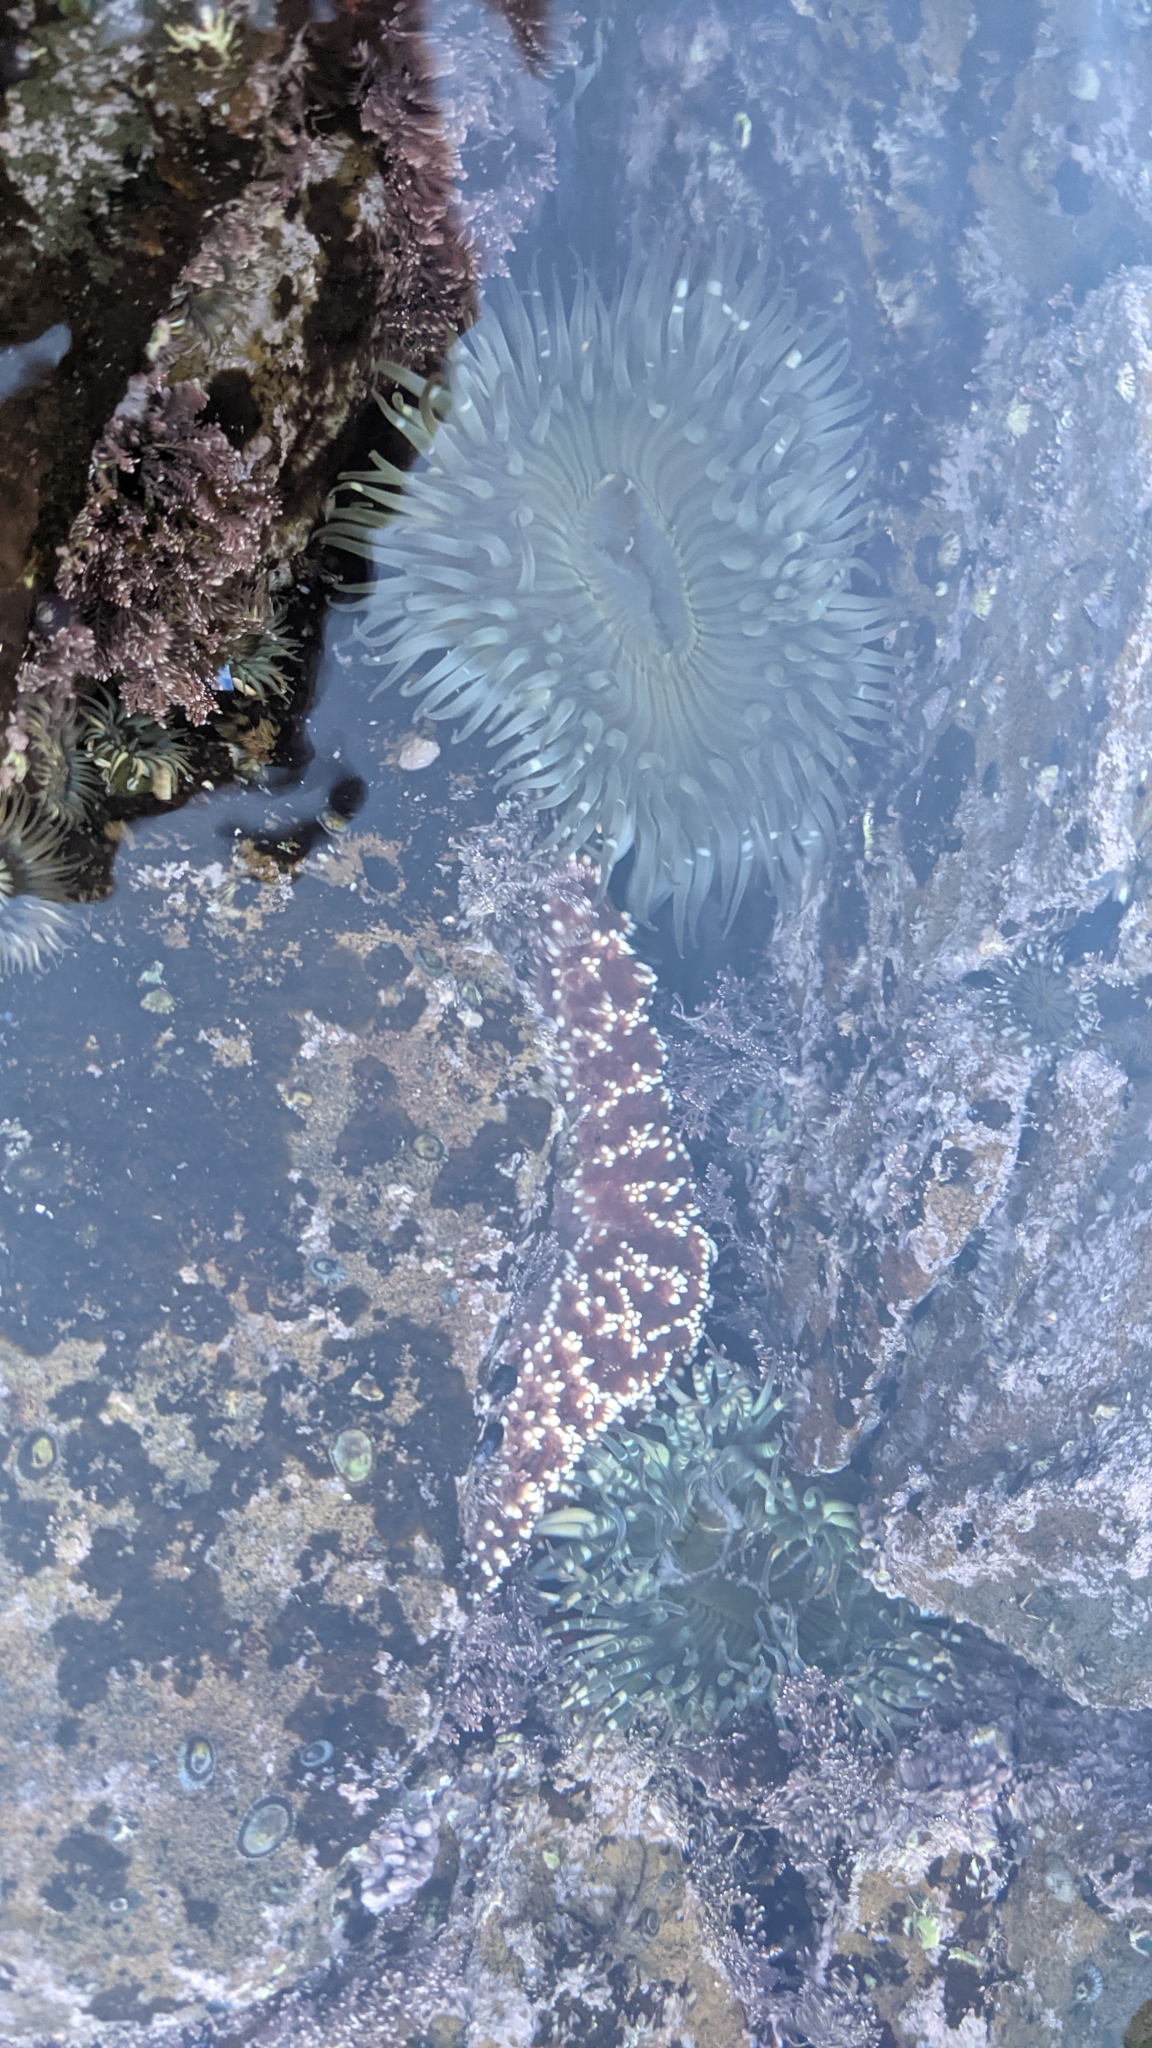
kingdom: Animalia
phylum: Echinodermata
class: Asteroidea
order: Forcipulatida
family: Asteriidae
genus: Pisaster
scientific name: Pisaster ochraceus
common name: Ochre stars
